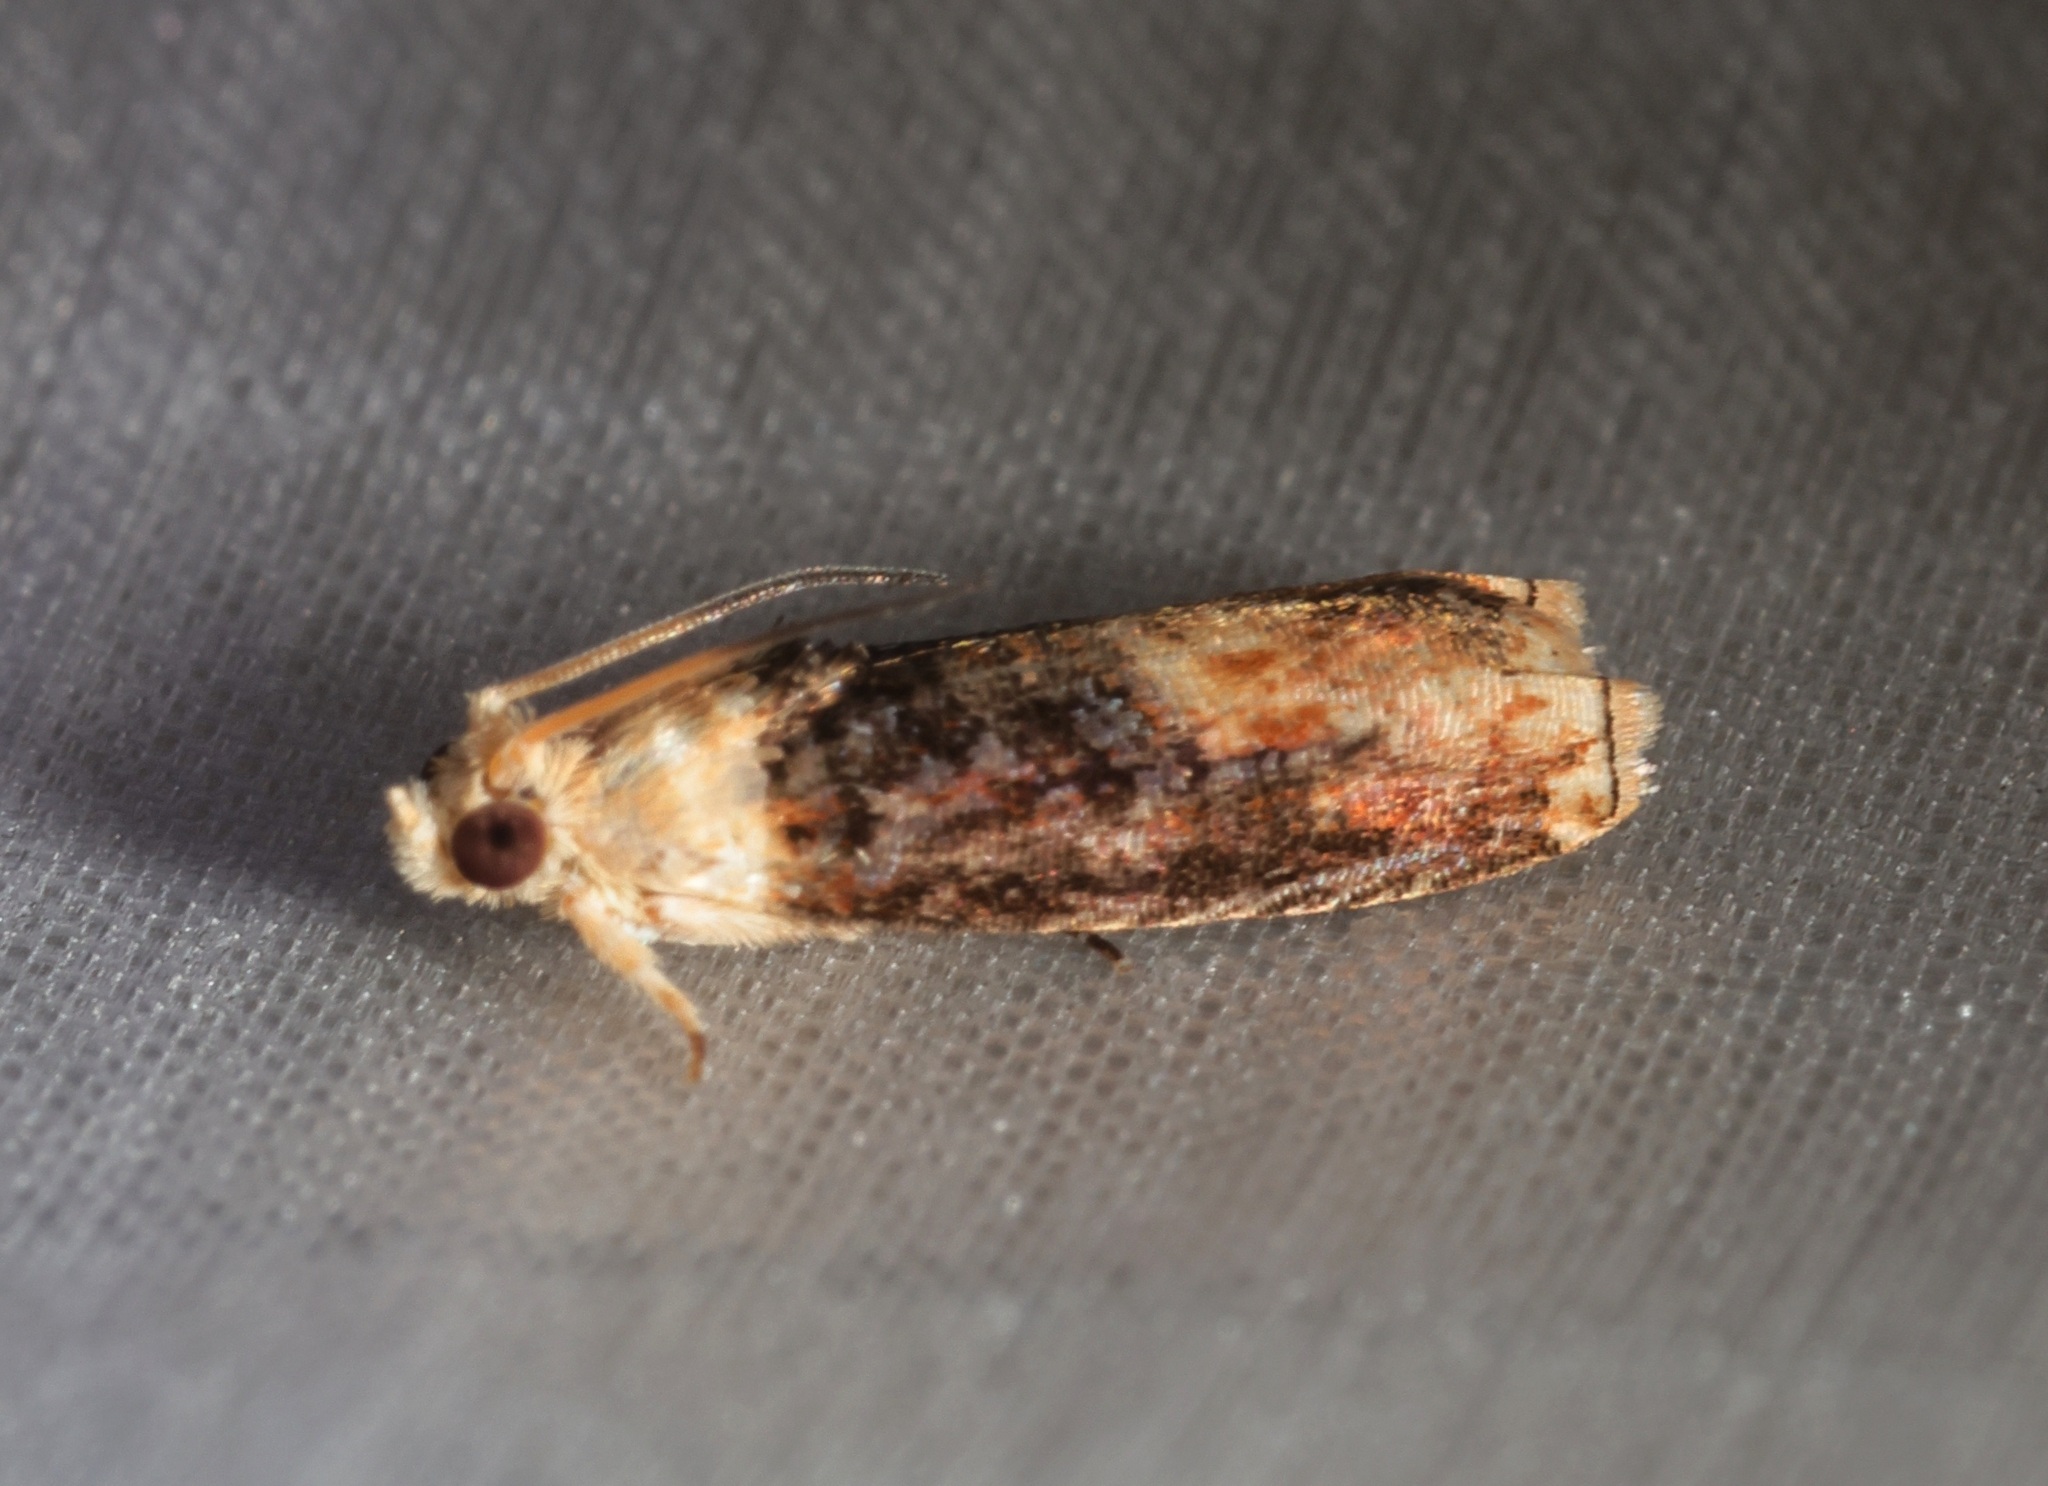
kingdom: Animalia
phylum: Arthropoda
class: Insecta
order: Lepidoptera
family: Tortricidae
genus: Hedya
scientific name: Hedya iophaea
